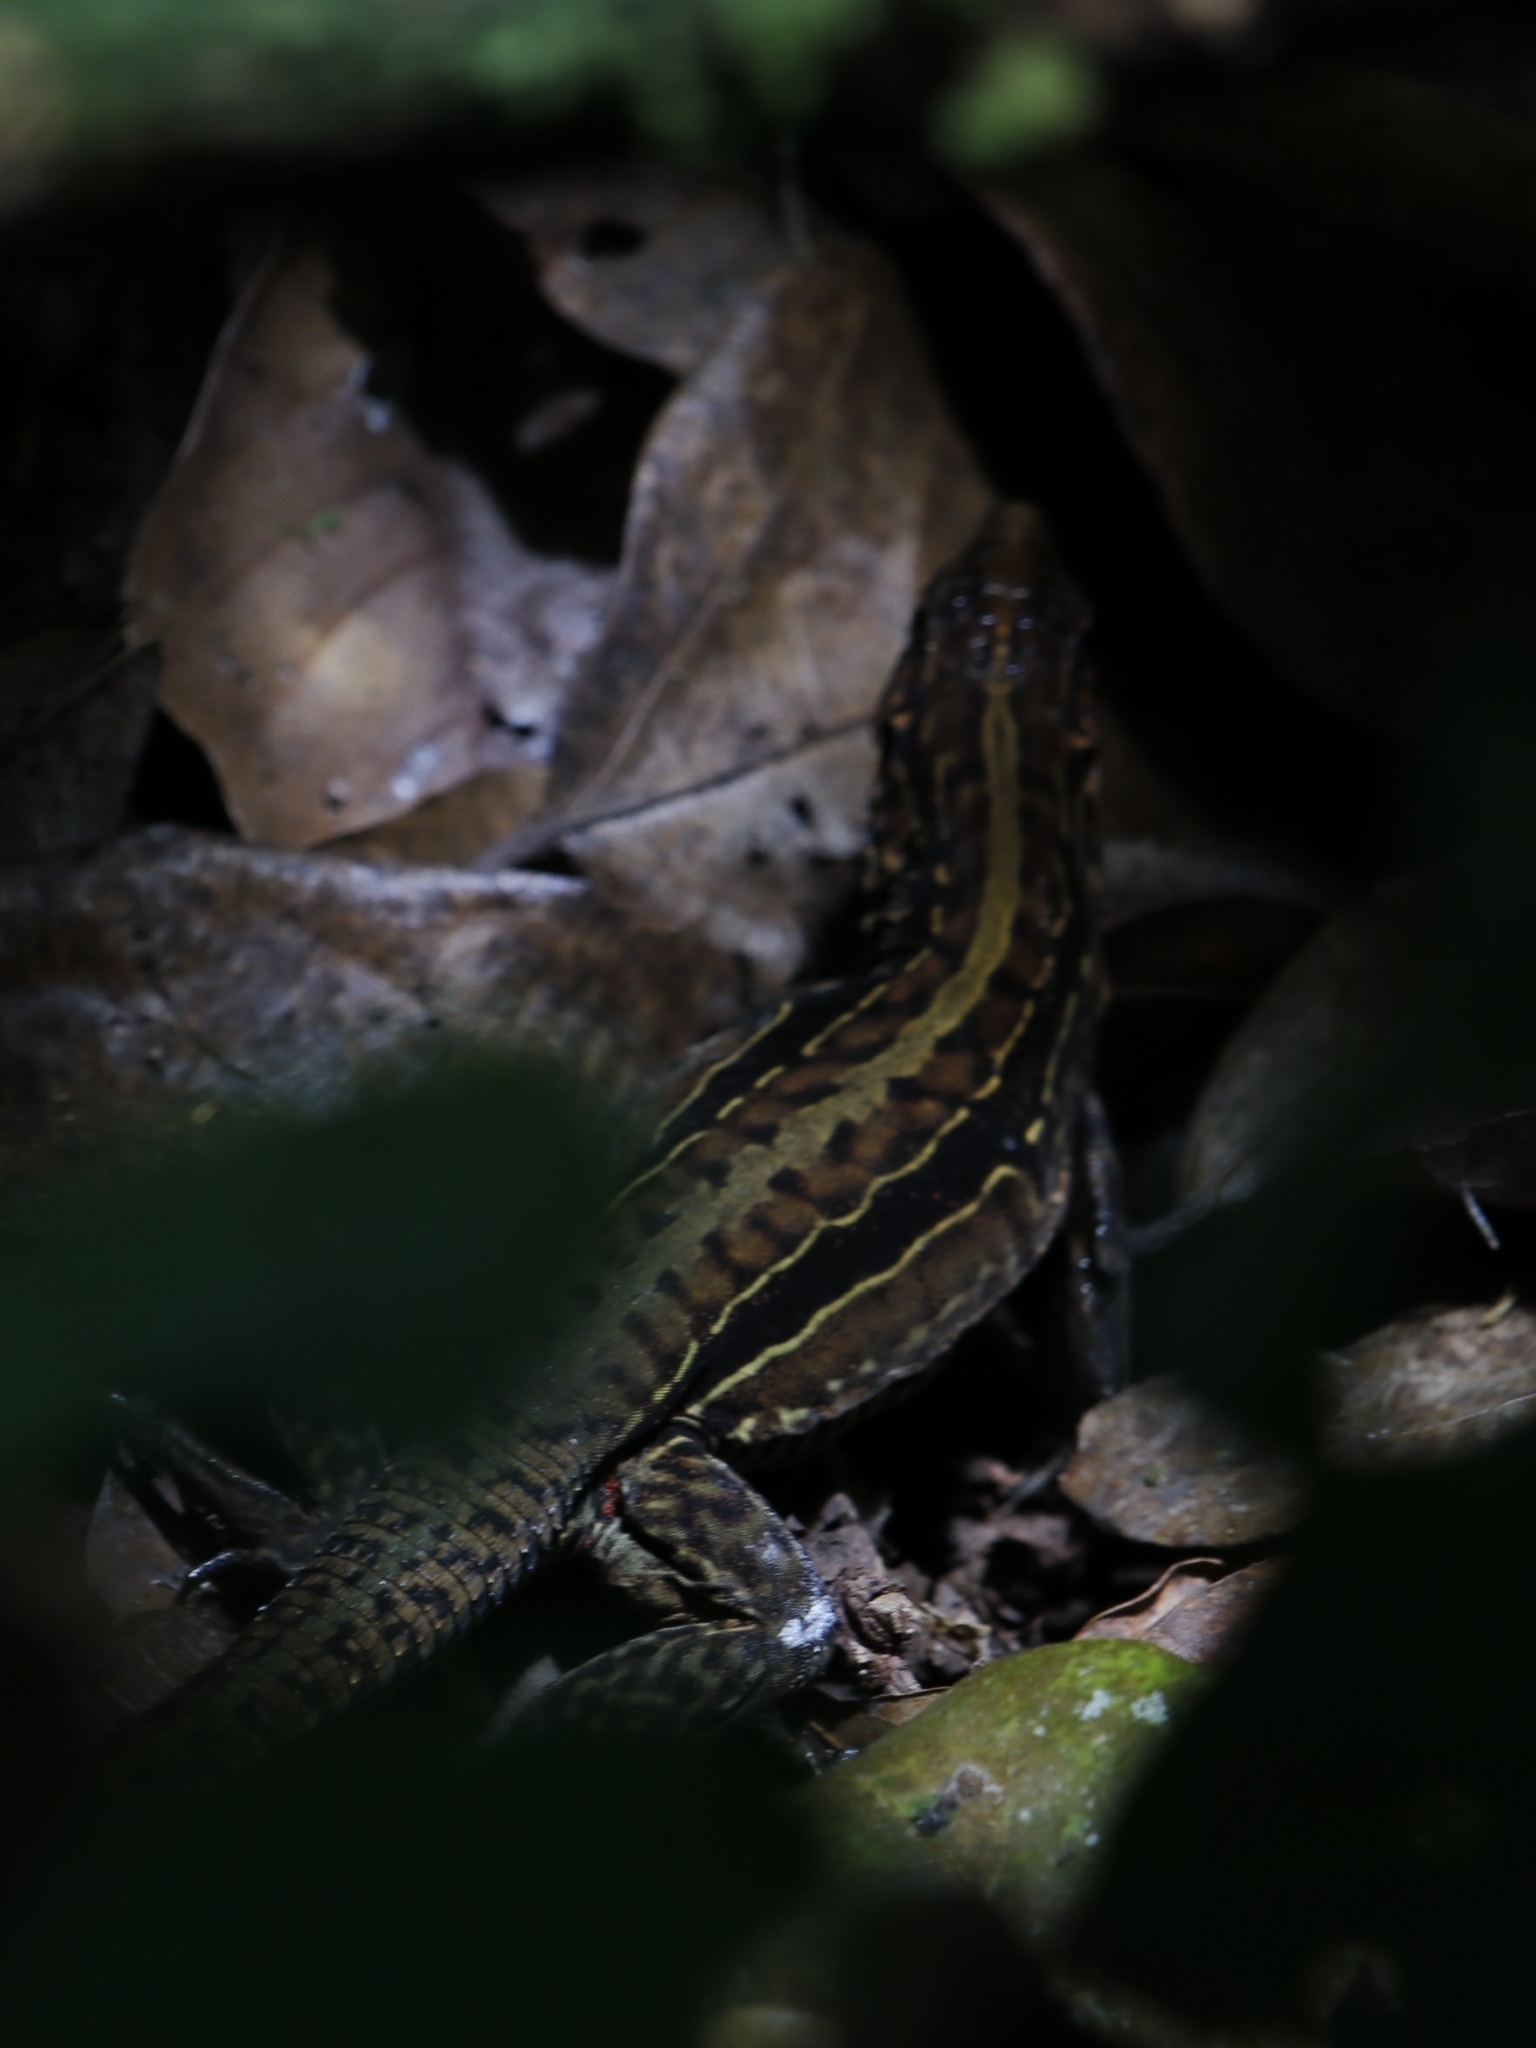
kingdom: Animalia
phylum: Chordata
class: Squamata
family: Teiidae
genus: Holcosus
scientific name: Holcosus festivus
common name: Middle american ameiva
